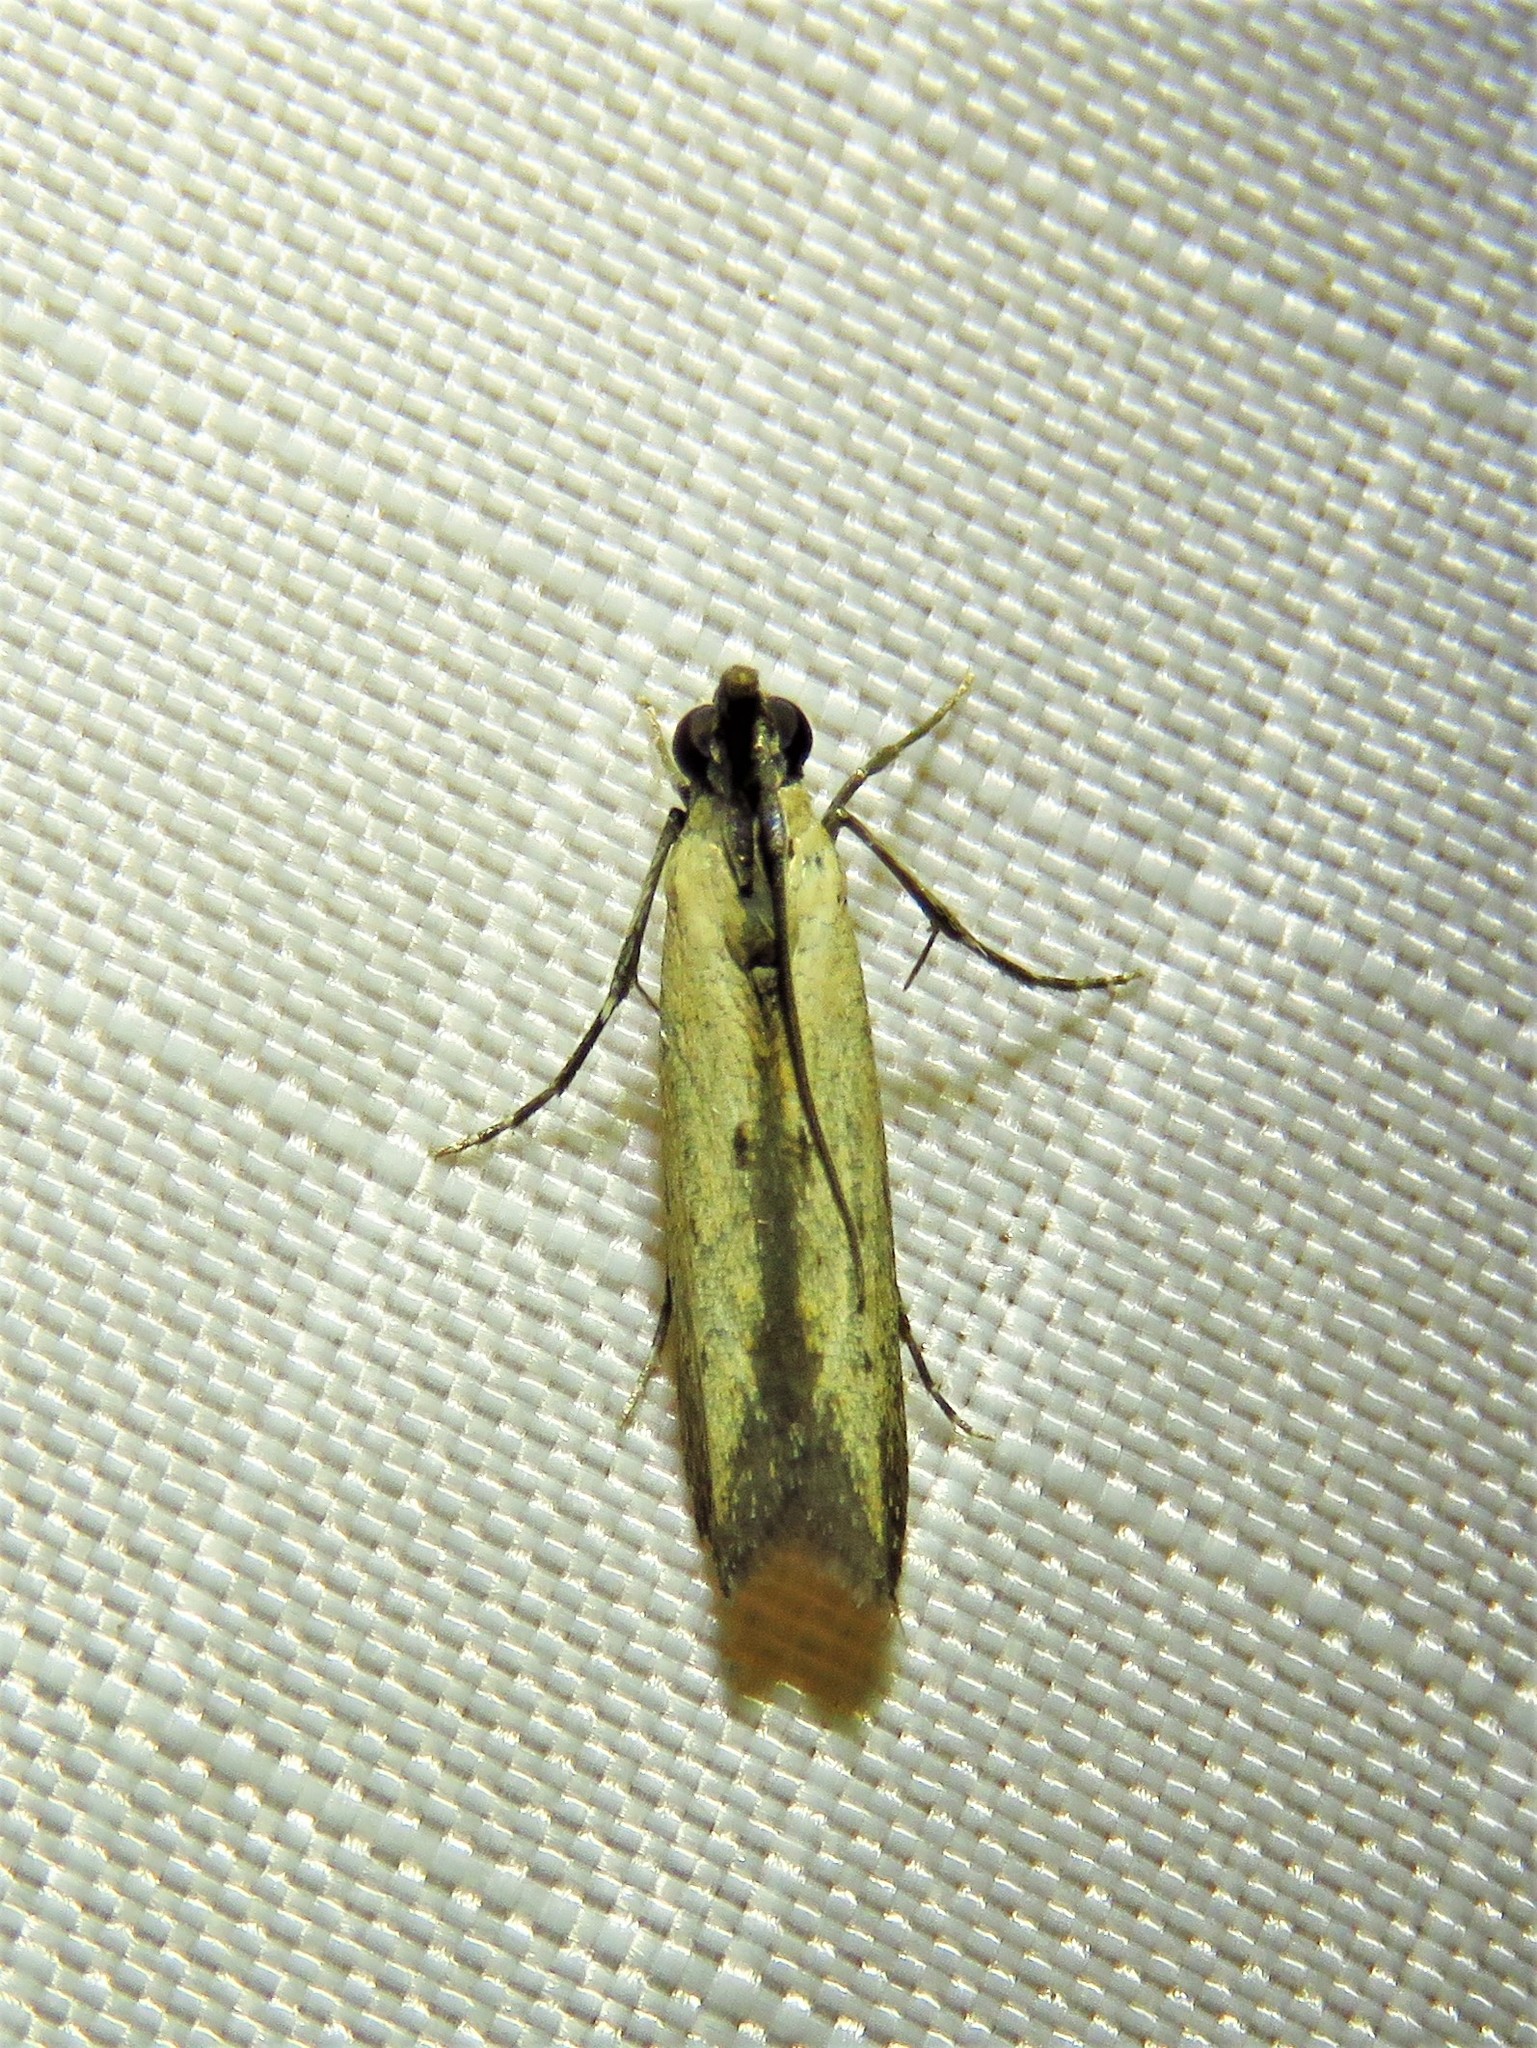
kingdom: Animalia
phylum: Arthropoda
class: Insecta
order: Lepidoptera
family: Pyralidae
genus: Elasmopalpus
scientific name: Elasmopalpus lignosella
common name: Lesser cornstalk borer
